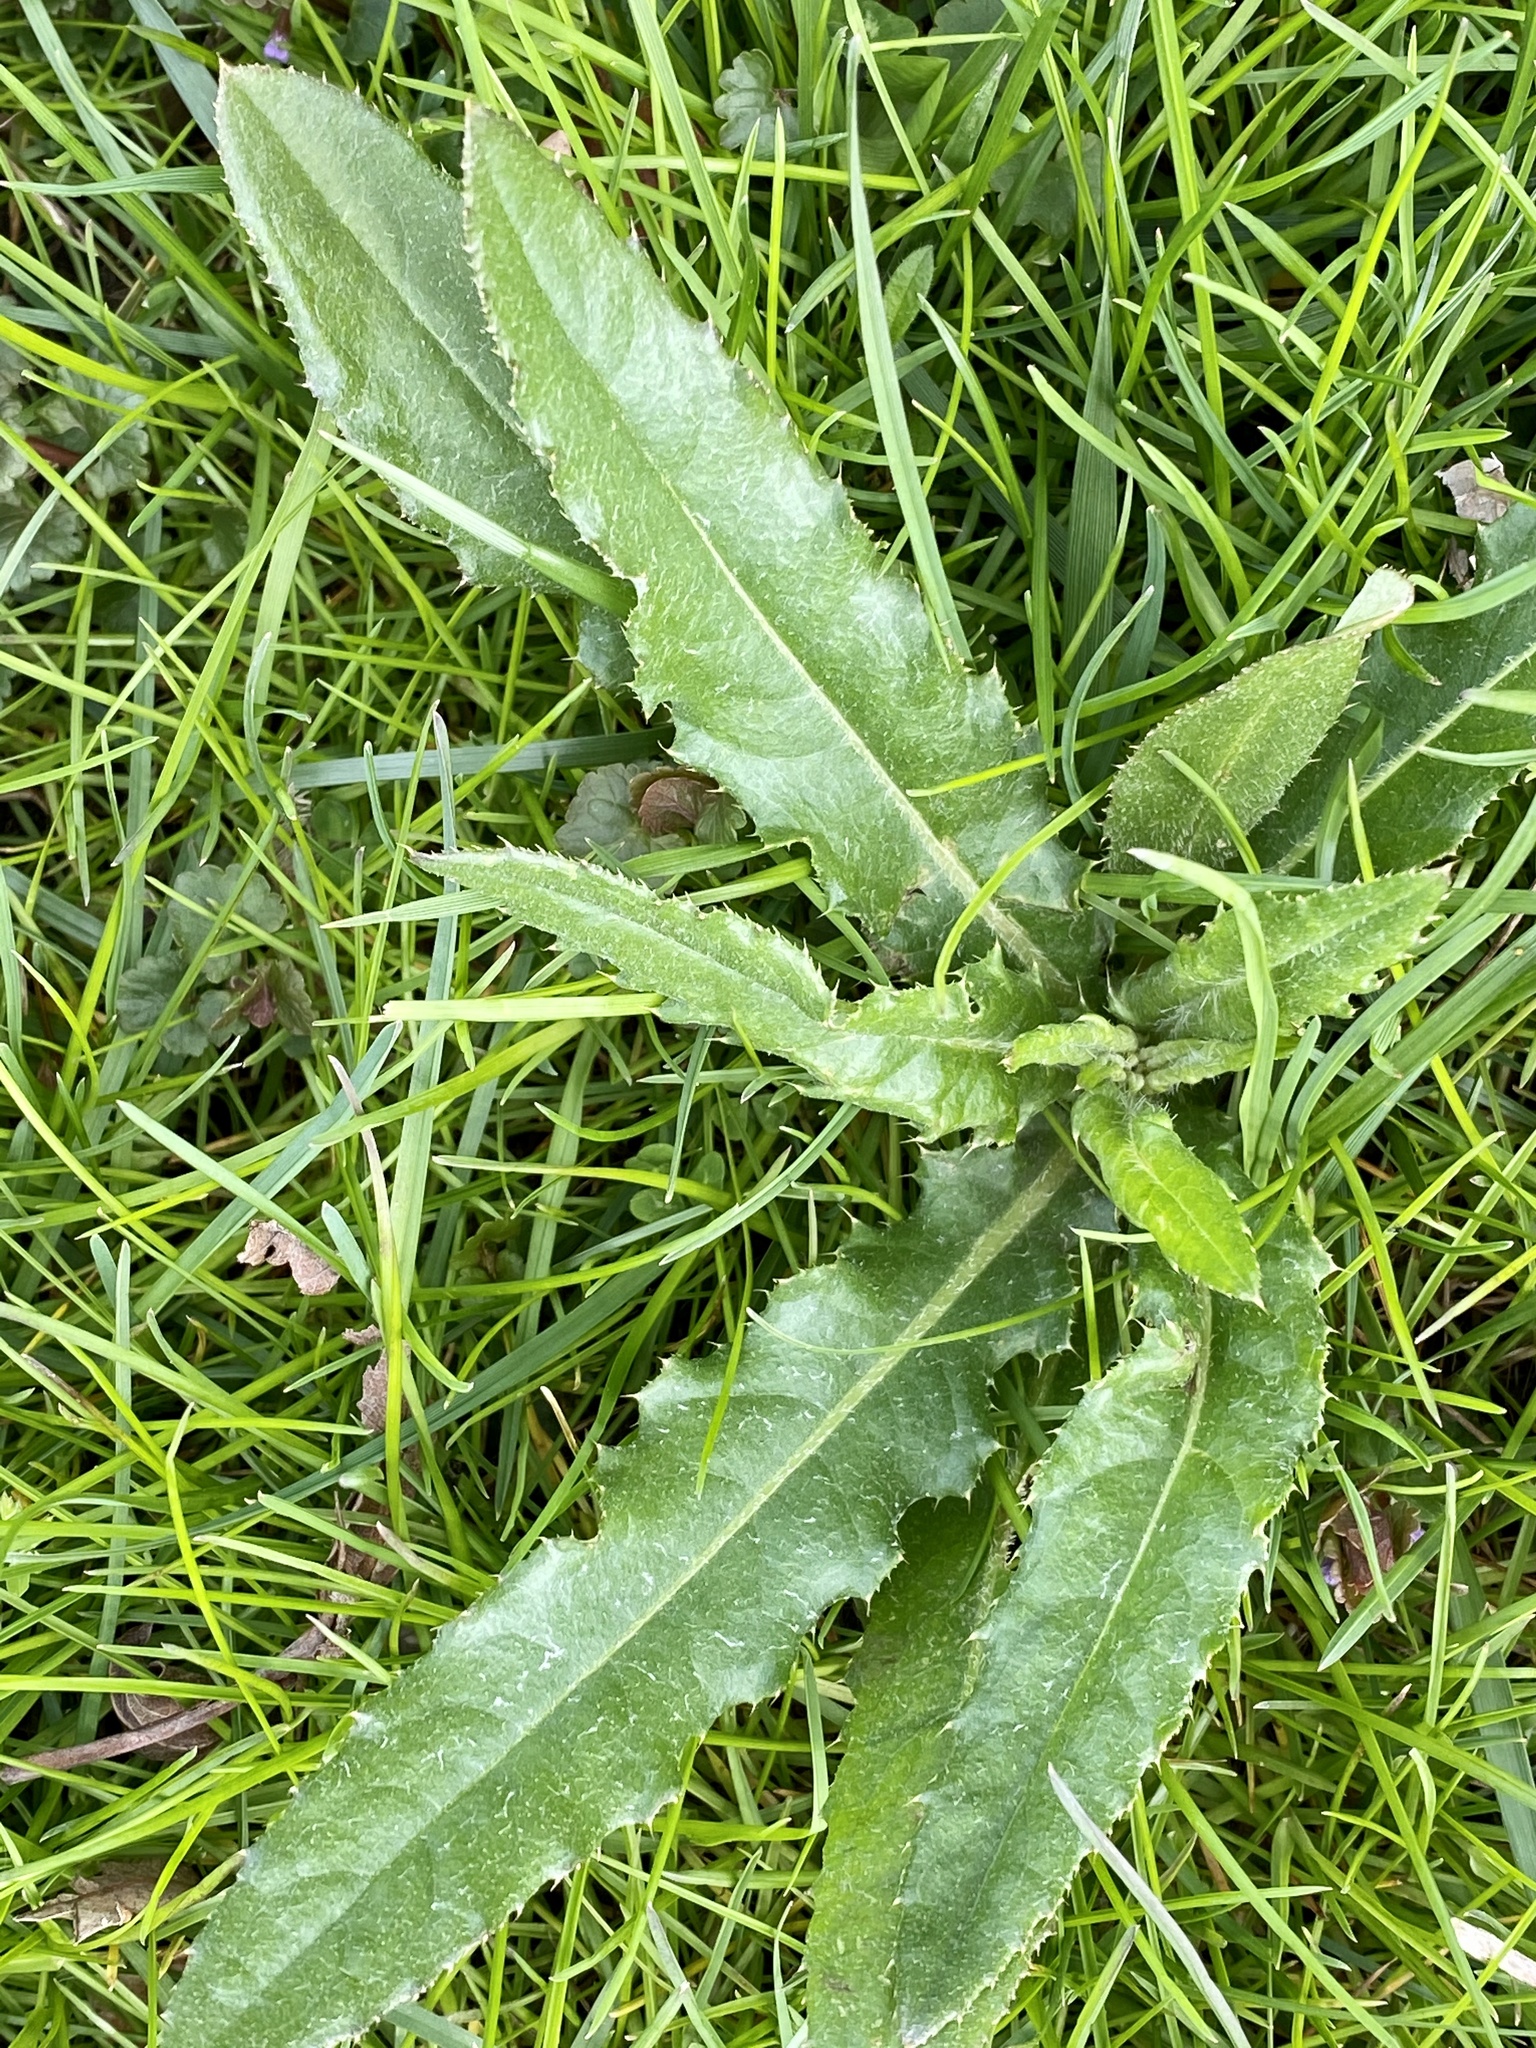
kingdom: Plantae
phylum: Tracheophyta
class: Magnoliopsida
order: Asterales
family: Asteraceae
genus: Cirsium
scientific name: Cirsium arvense
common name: Creeping thistle
